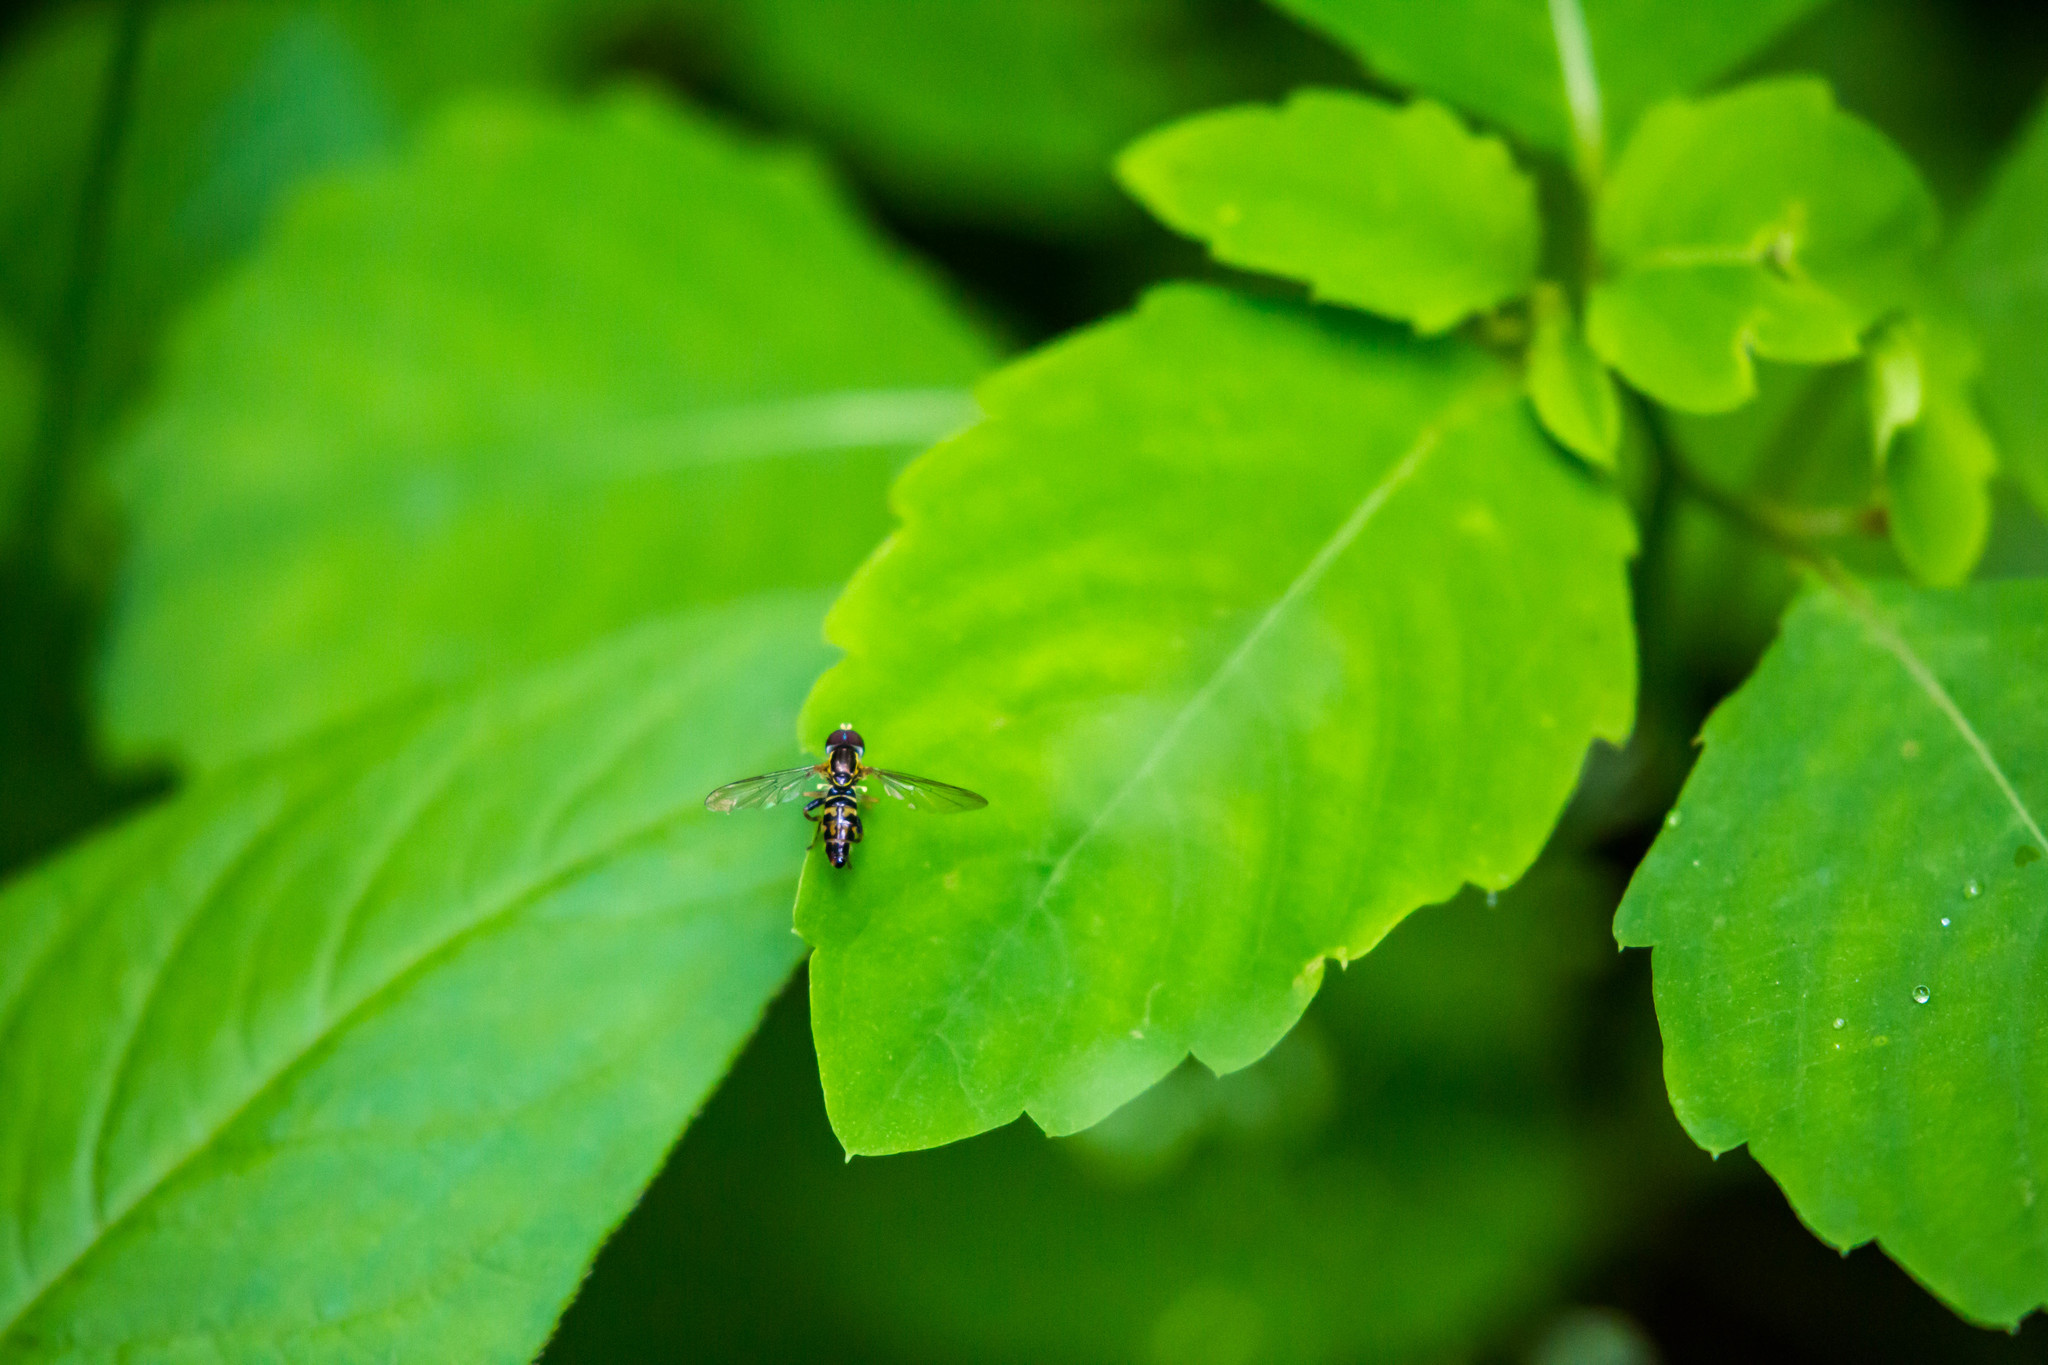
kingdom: Animalia
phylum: Arthropoda
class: Insecta
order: Diptera
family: Syrphidae
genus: Toxomerus
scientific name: Toxomerus geminatus
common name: Eastern calligrapher
